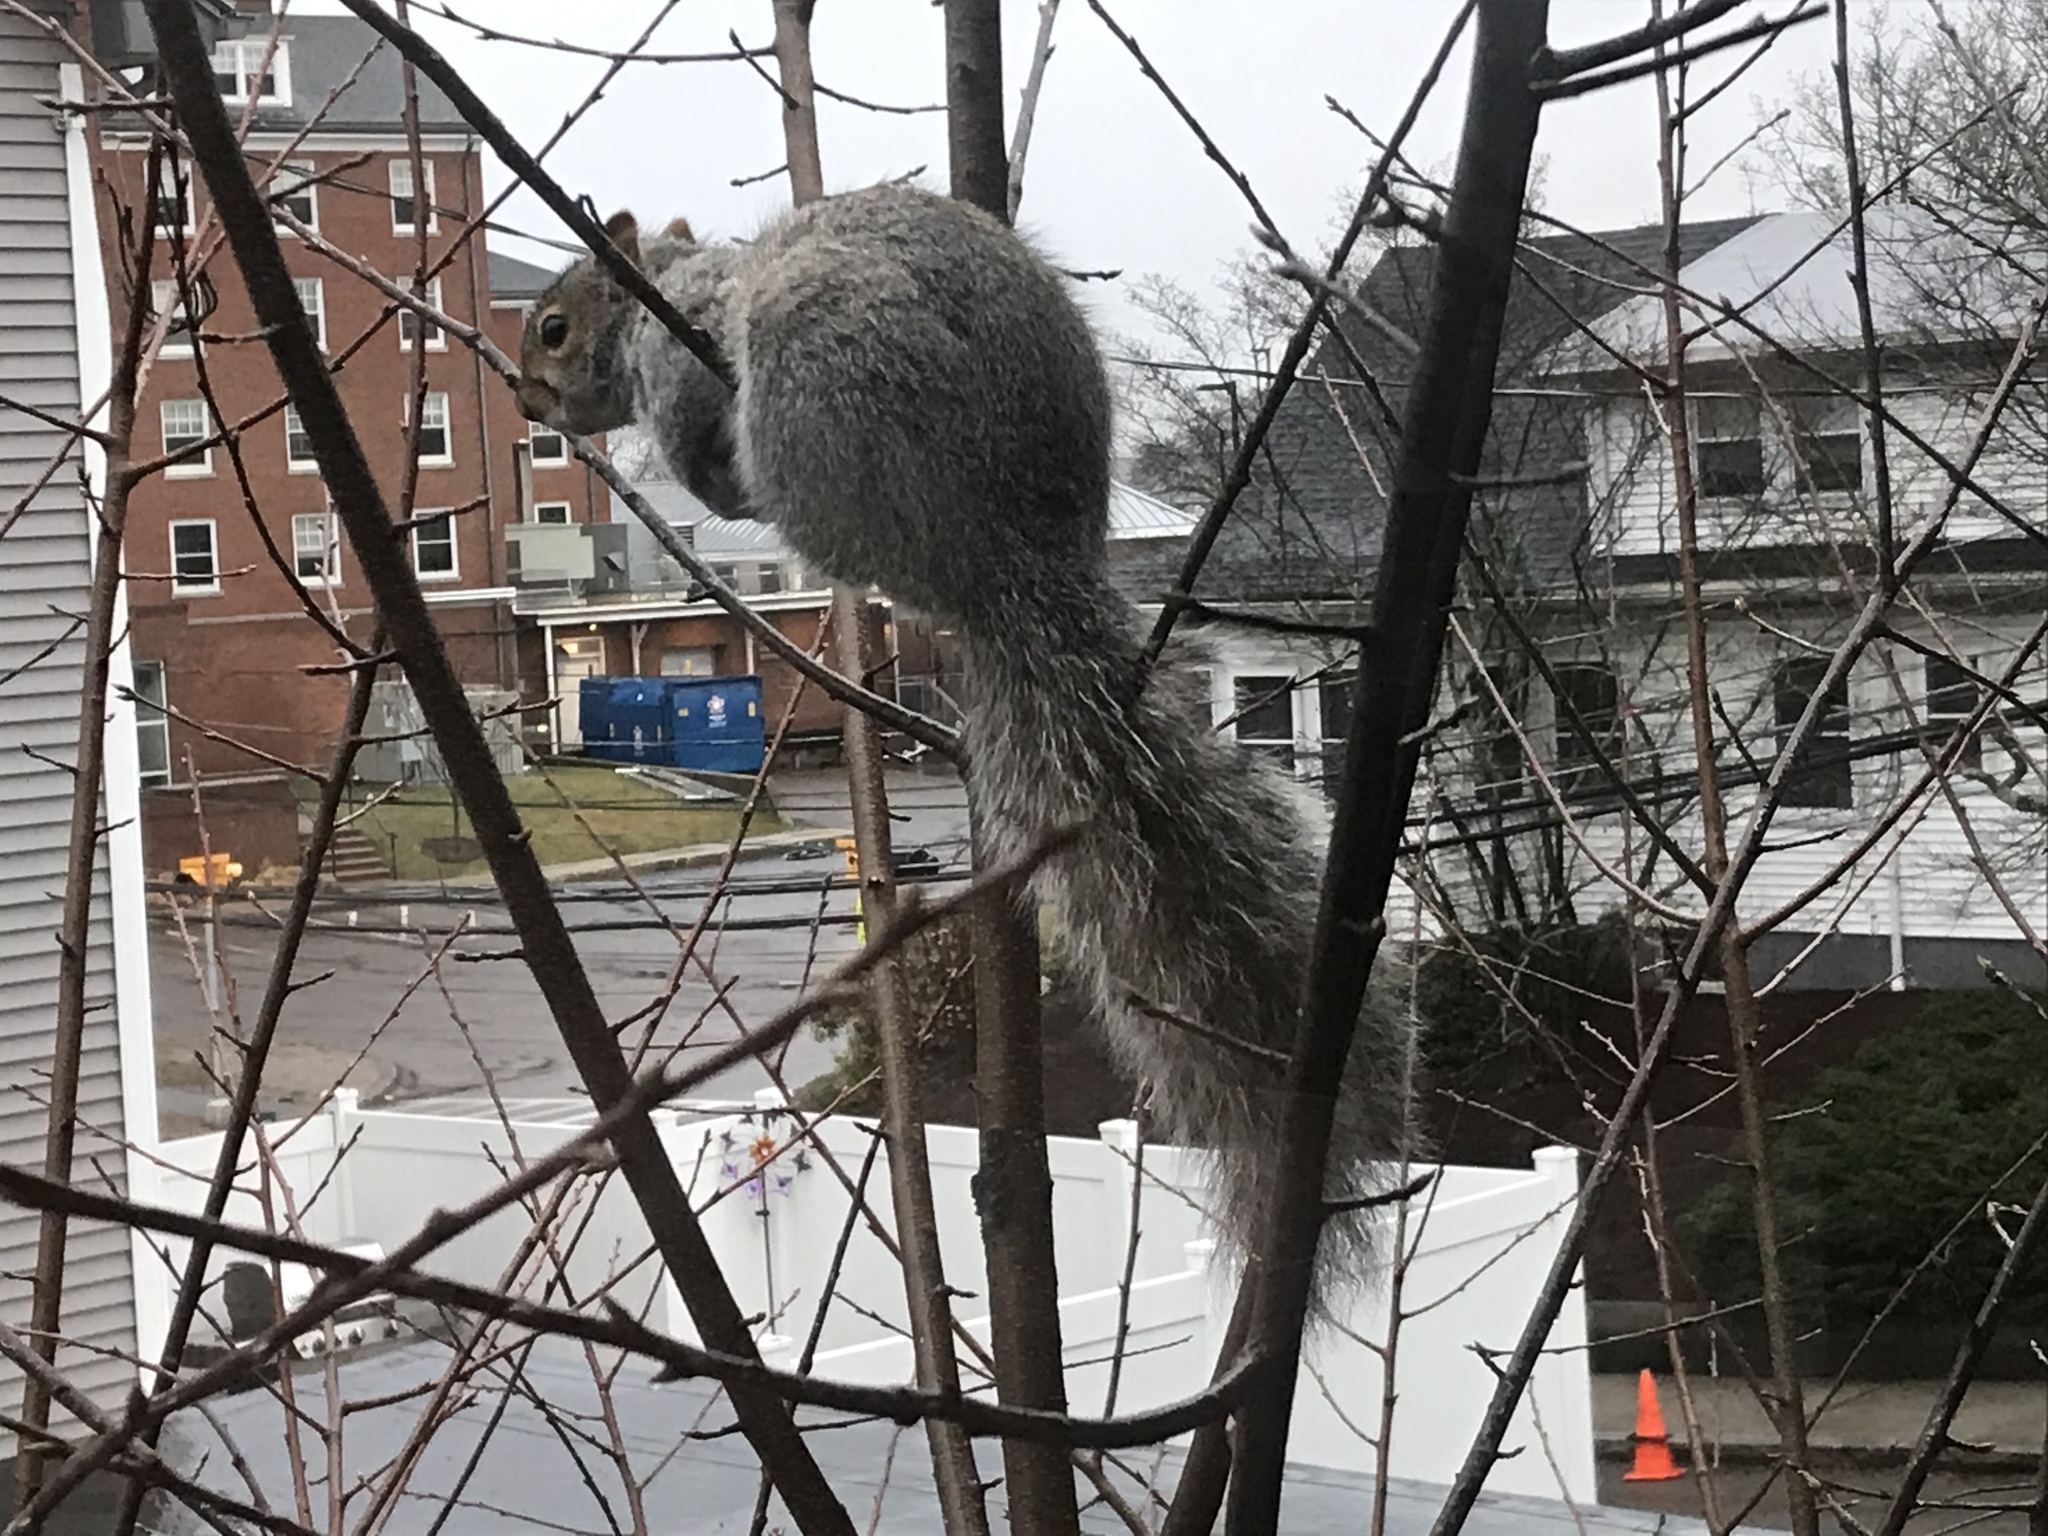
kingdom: Animalia
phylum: Chordata
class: Mammalia
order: Rodentia
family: Sciuridae
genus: Sciurus
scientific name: Sciurus carolinensis
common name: Eastern gray squirrel
